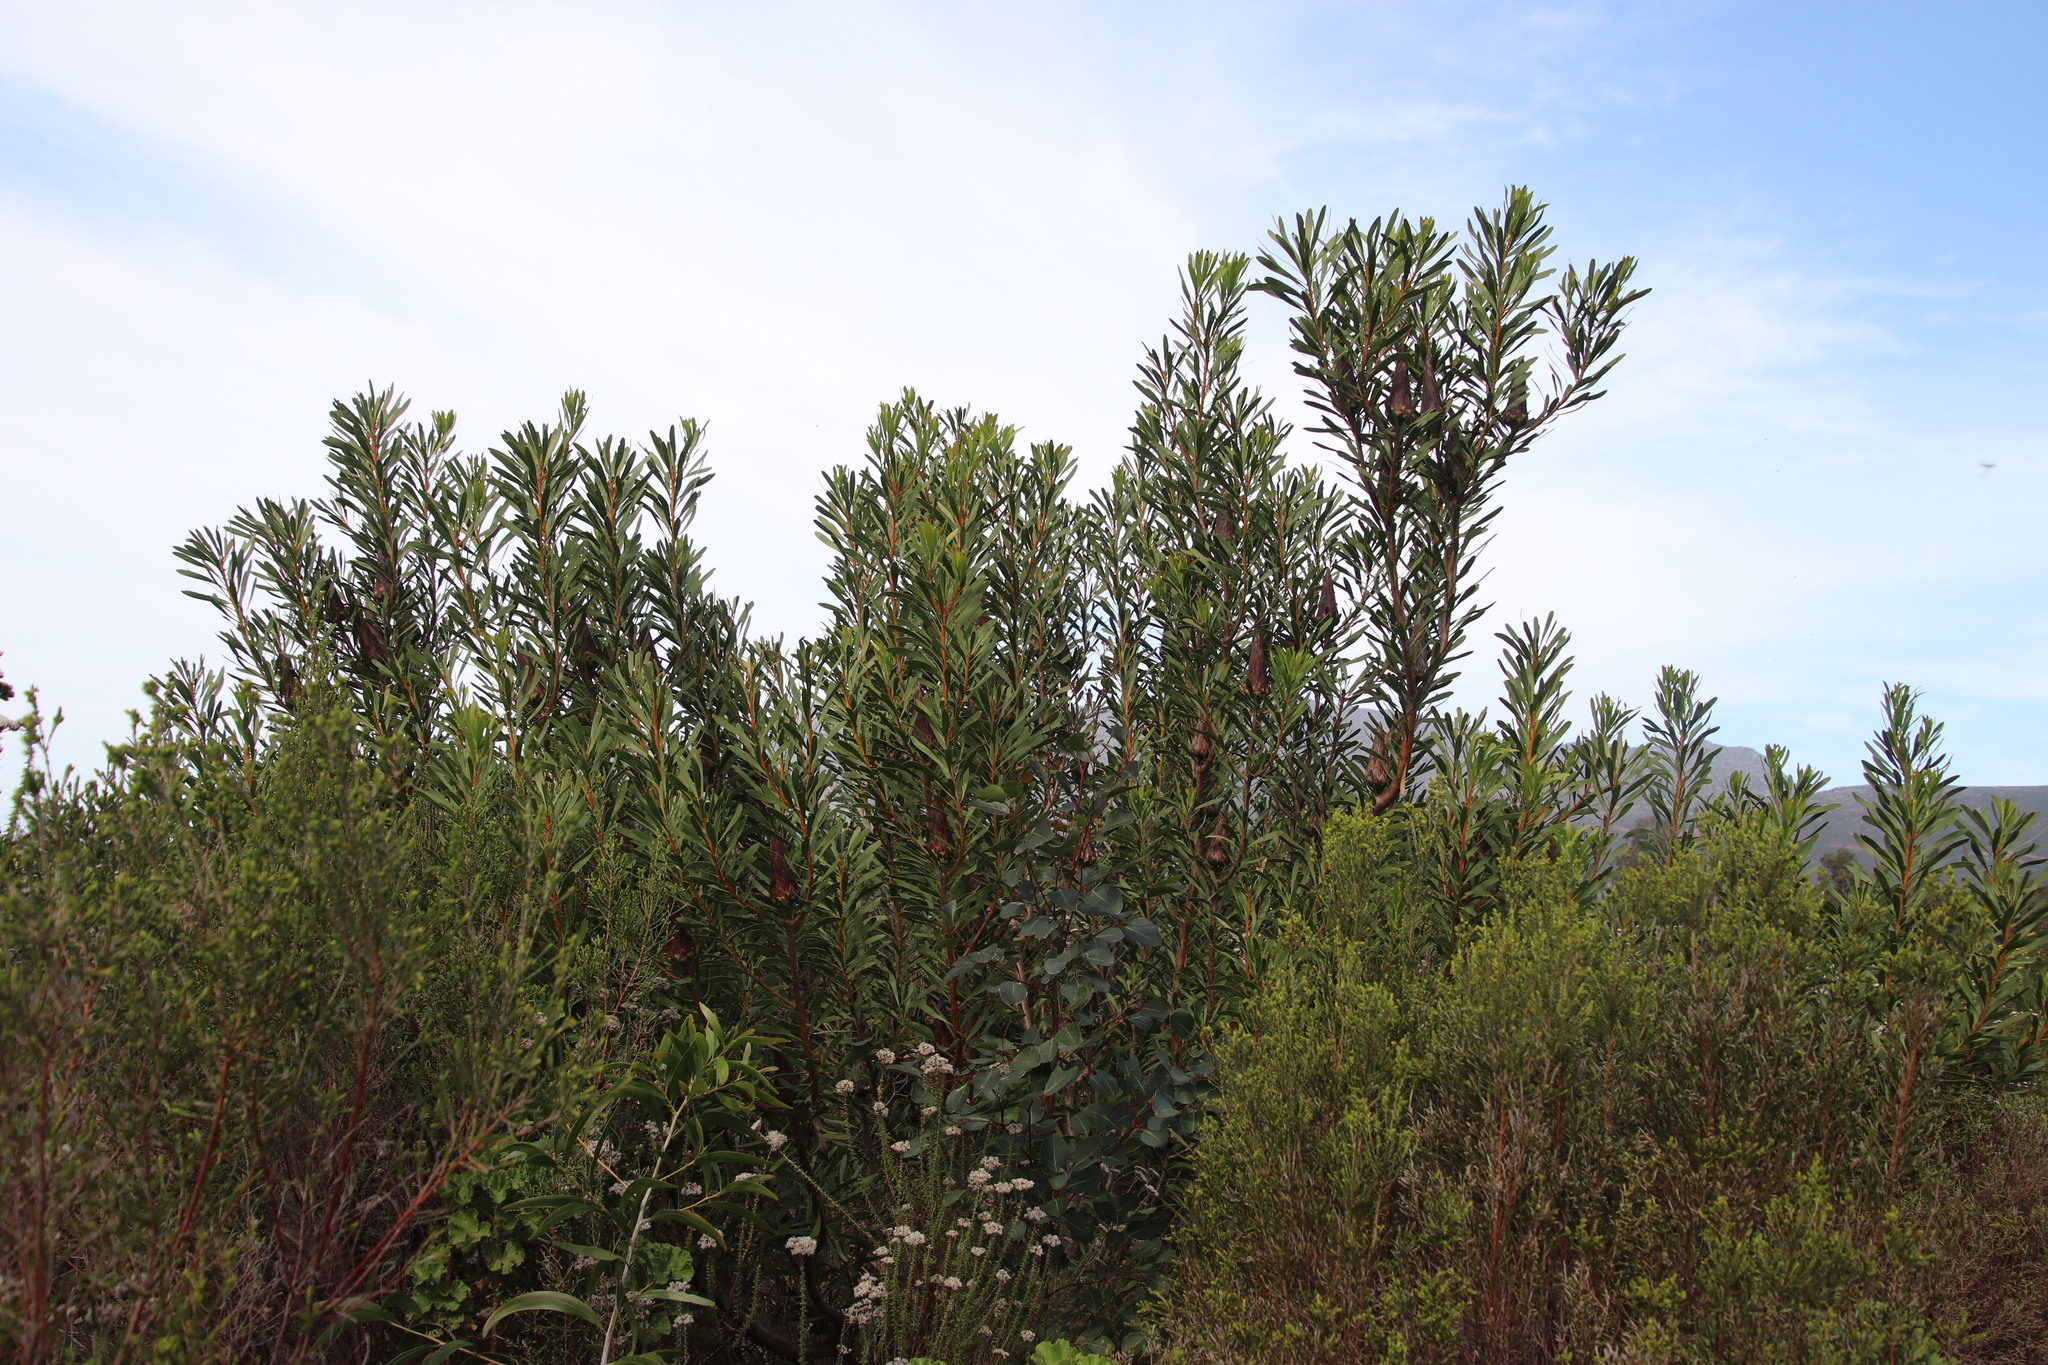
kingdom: Plantae
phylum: Tracheophyta
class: Magnoliopsida
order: Proteales
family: Proteaceae
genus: Protea
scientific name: Protea repens
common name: Sugarbush
